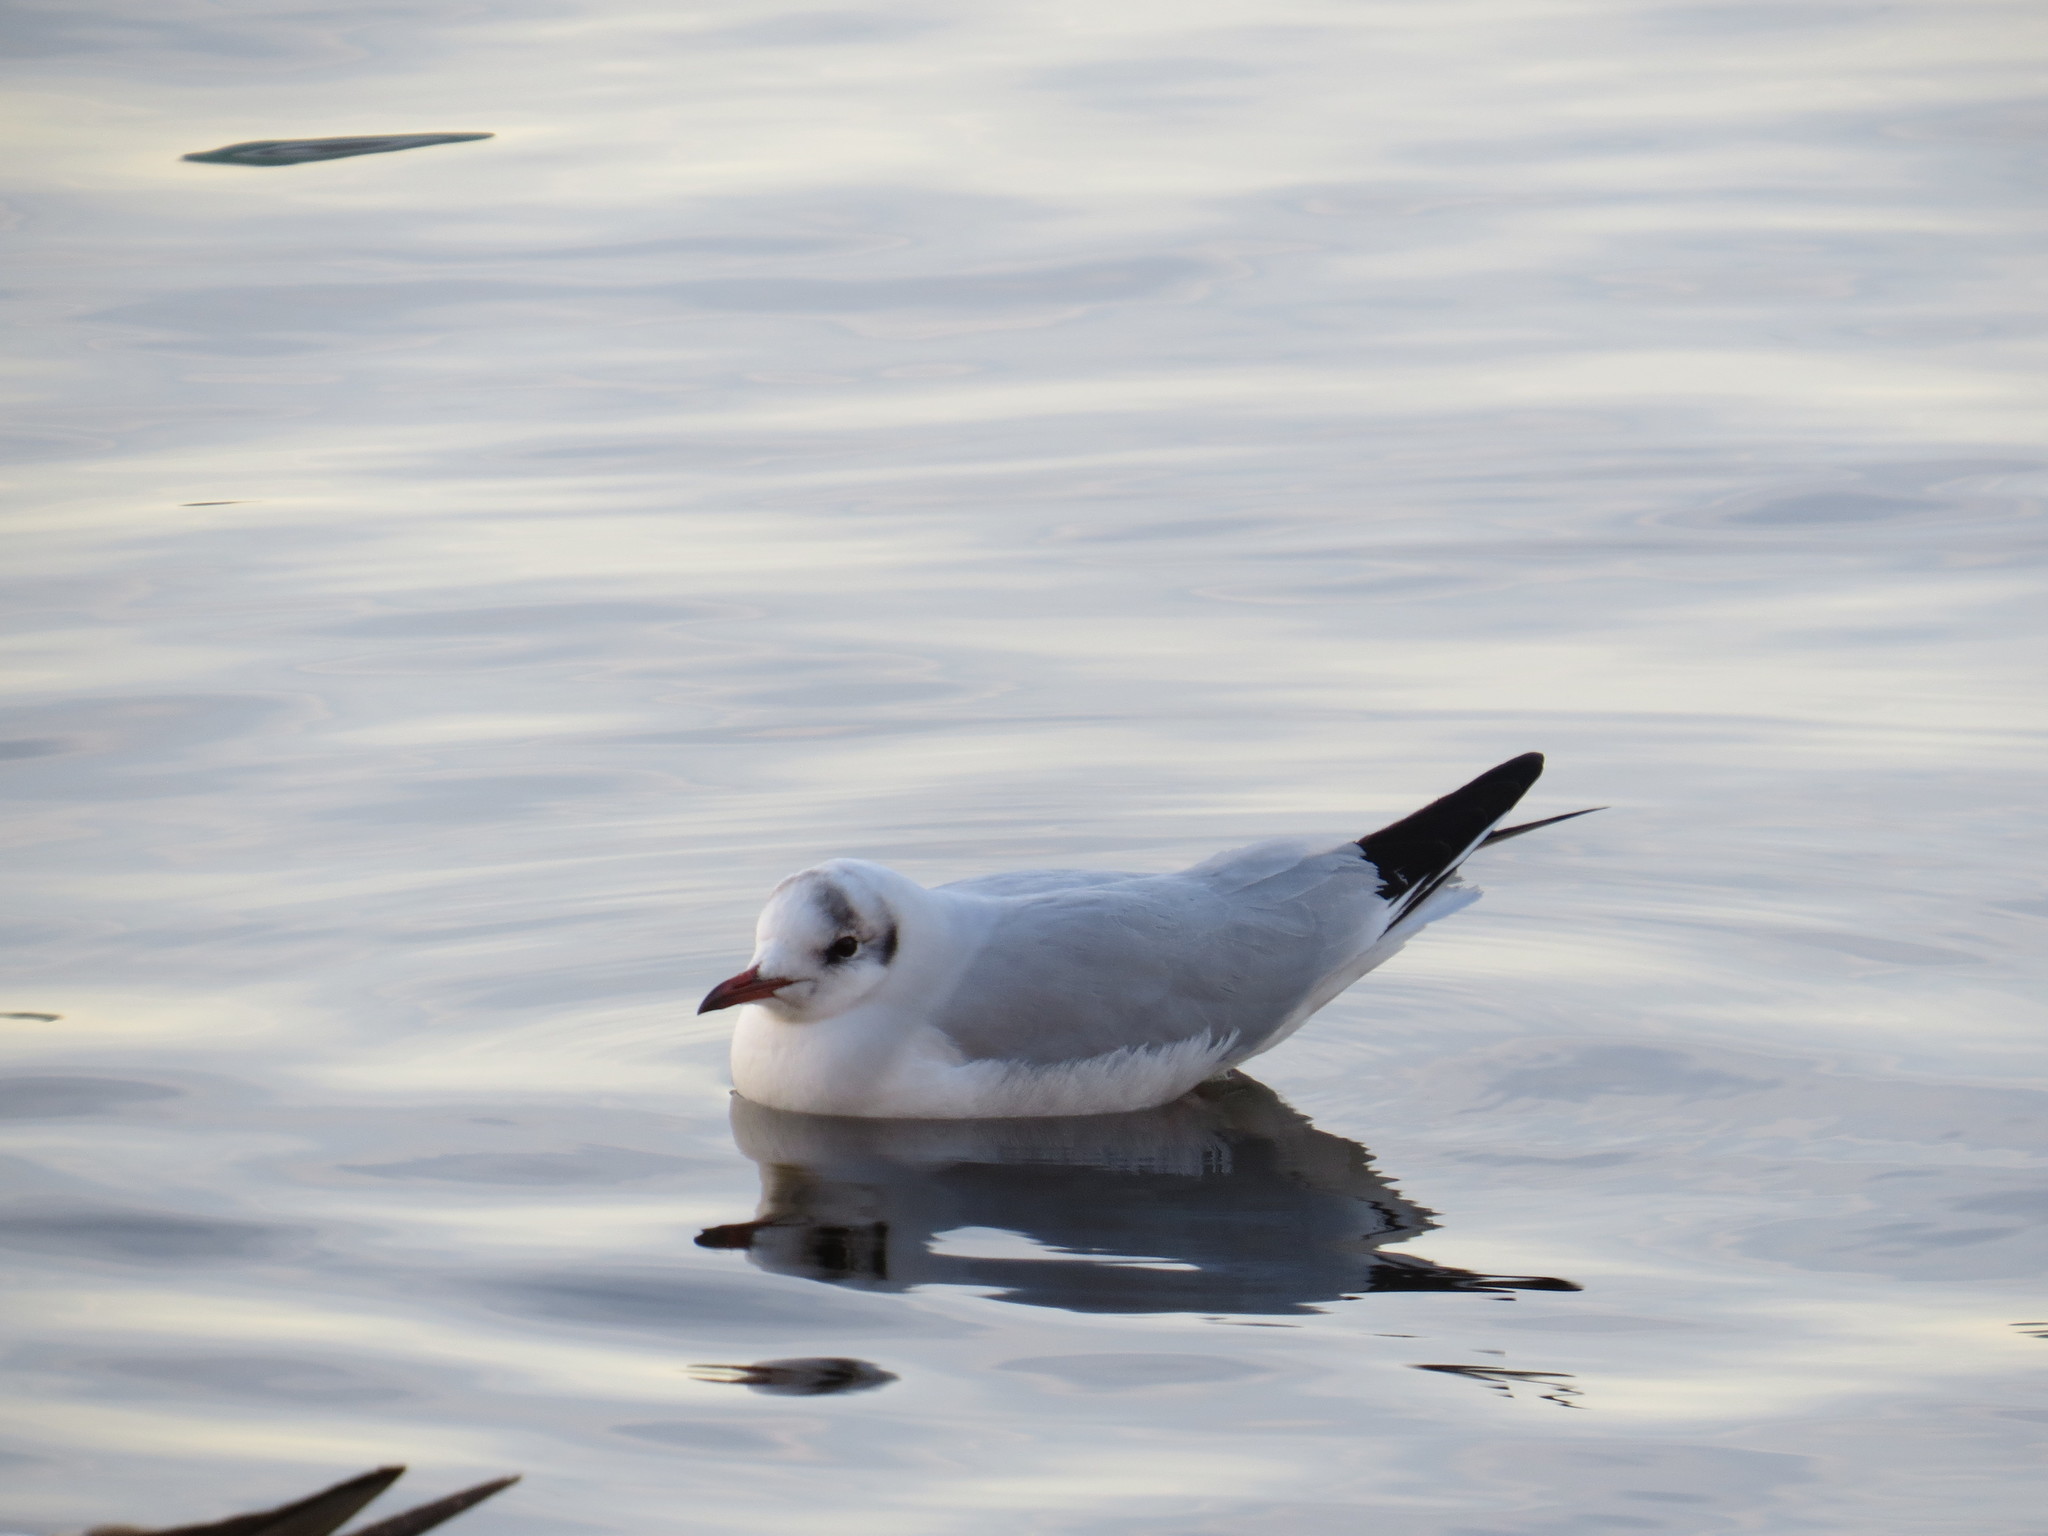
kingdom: Animalia
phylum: Chordata
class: Aves
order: Charadriiformes
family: Laridae
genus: Chroicocephalus
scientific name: Chroicocephalus ridibundus
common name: Black-headed gull
